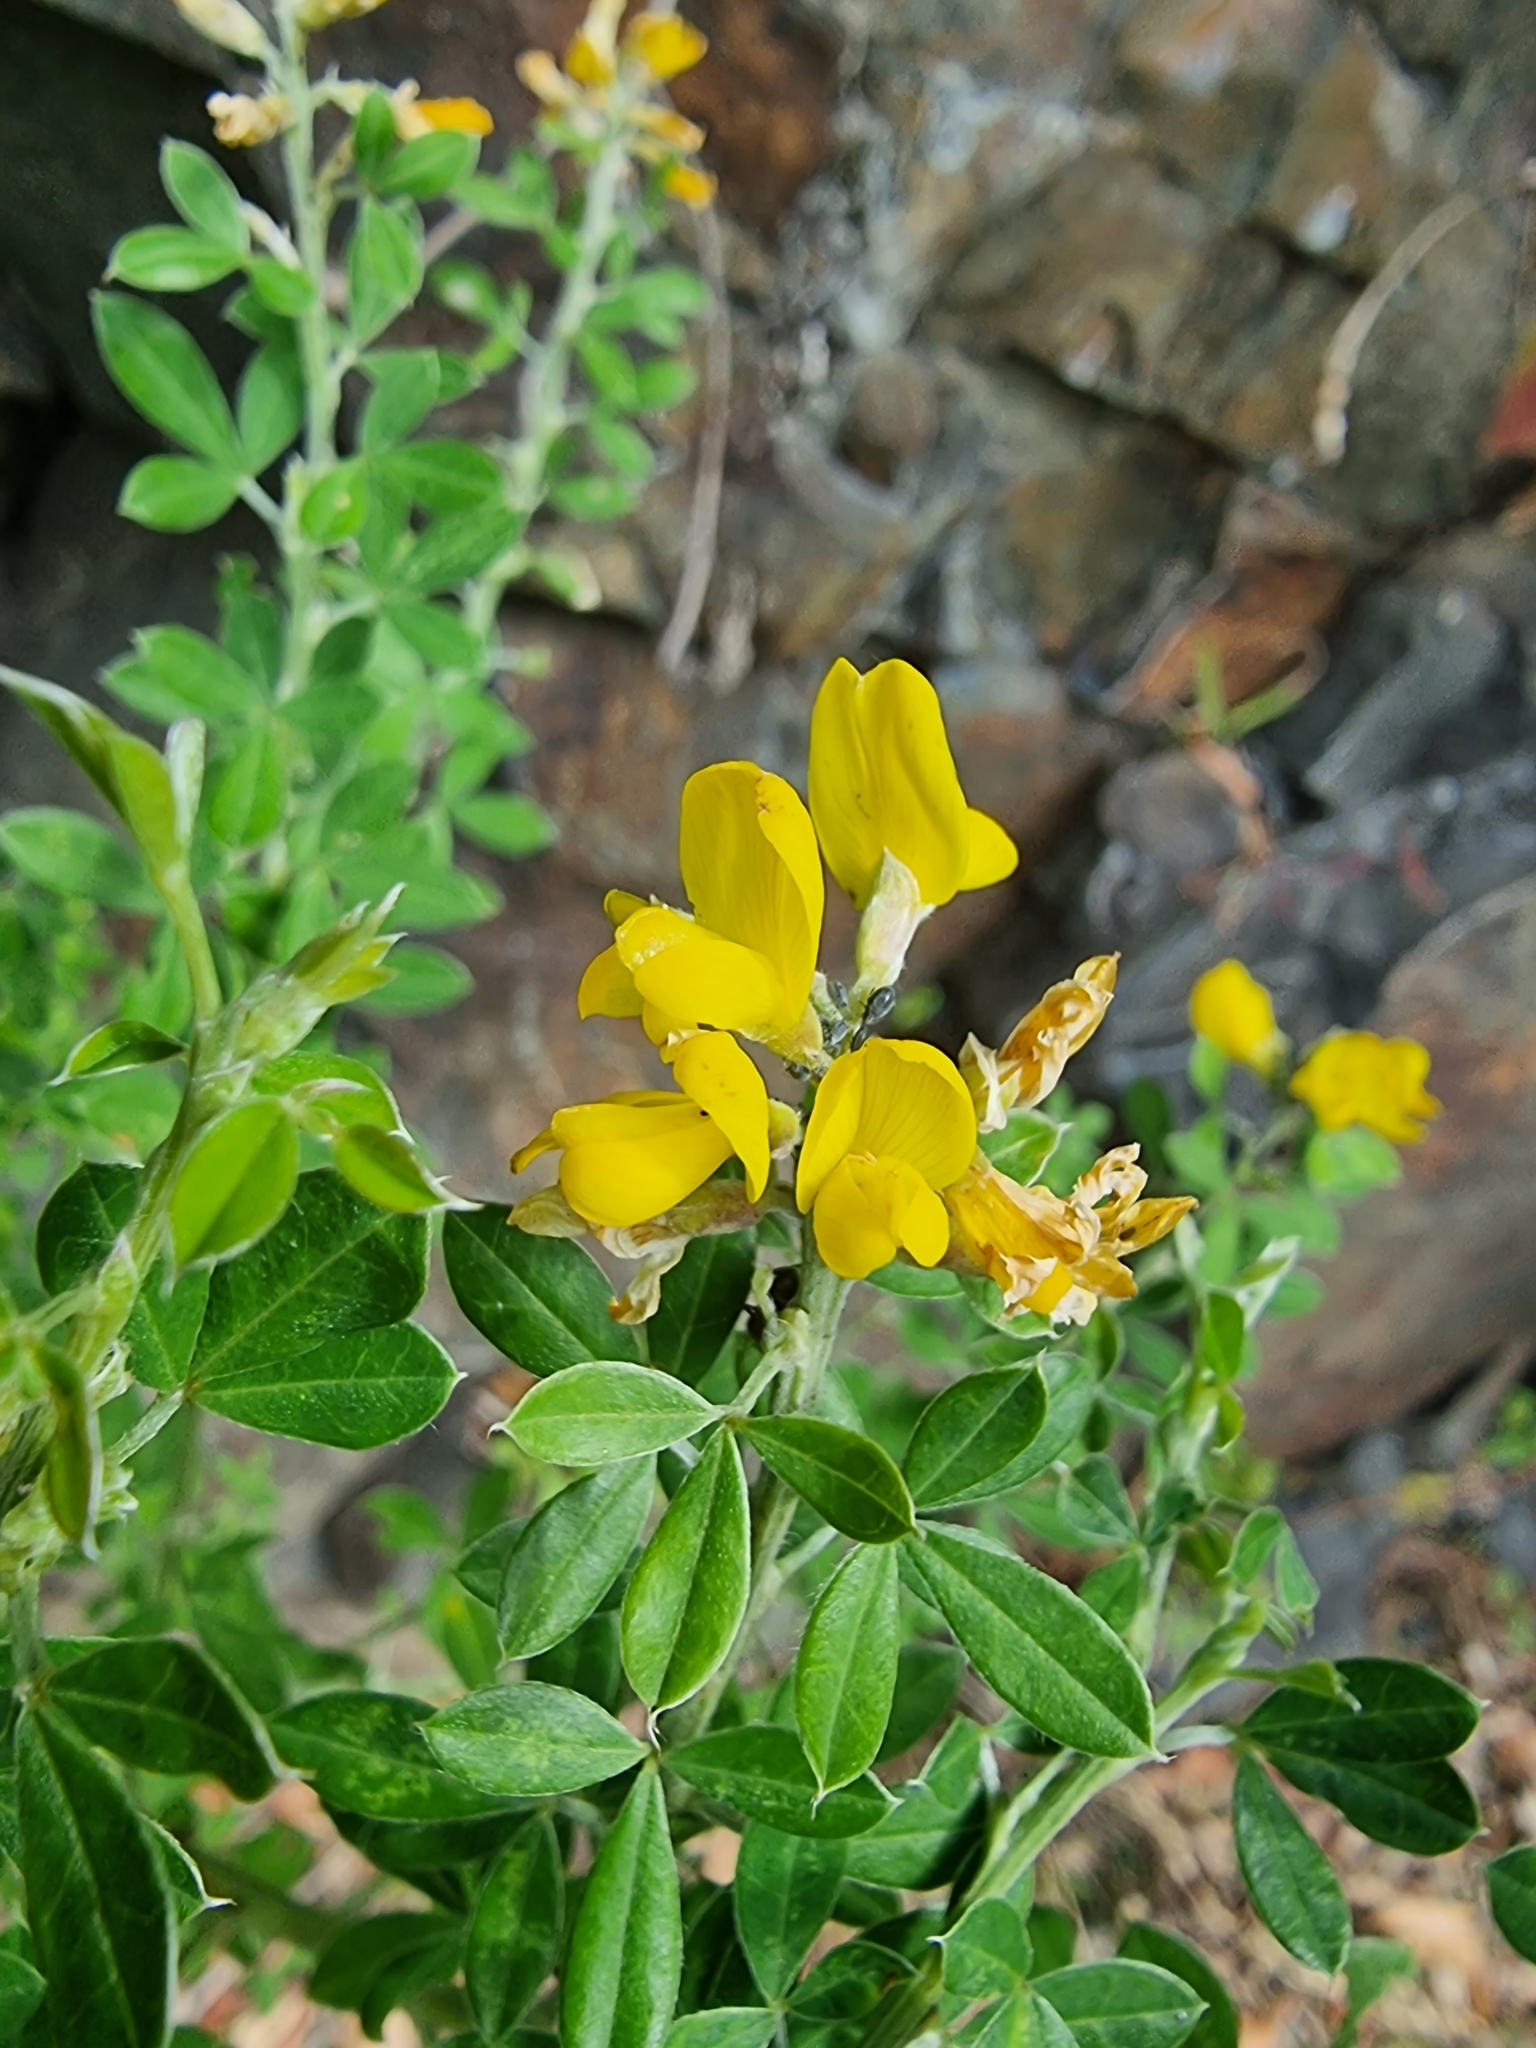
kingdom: Plantae
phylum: Tracheophyta
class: Magnoliopsida
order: Fabales
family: Fabaceae
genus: Genista
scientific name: Genista maderensis
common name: Madeira dyer's greenweed
